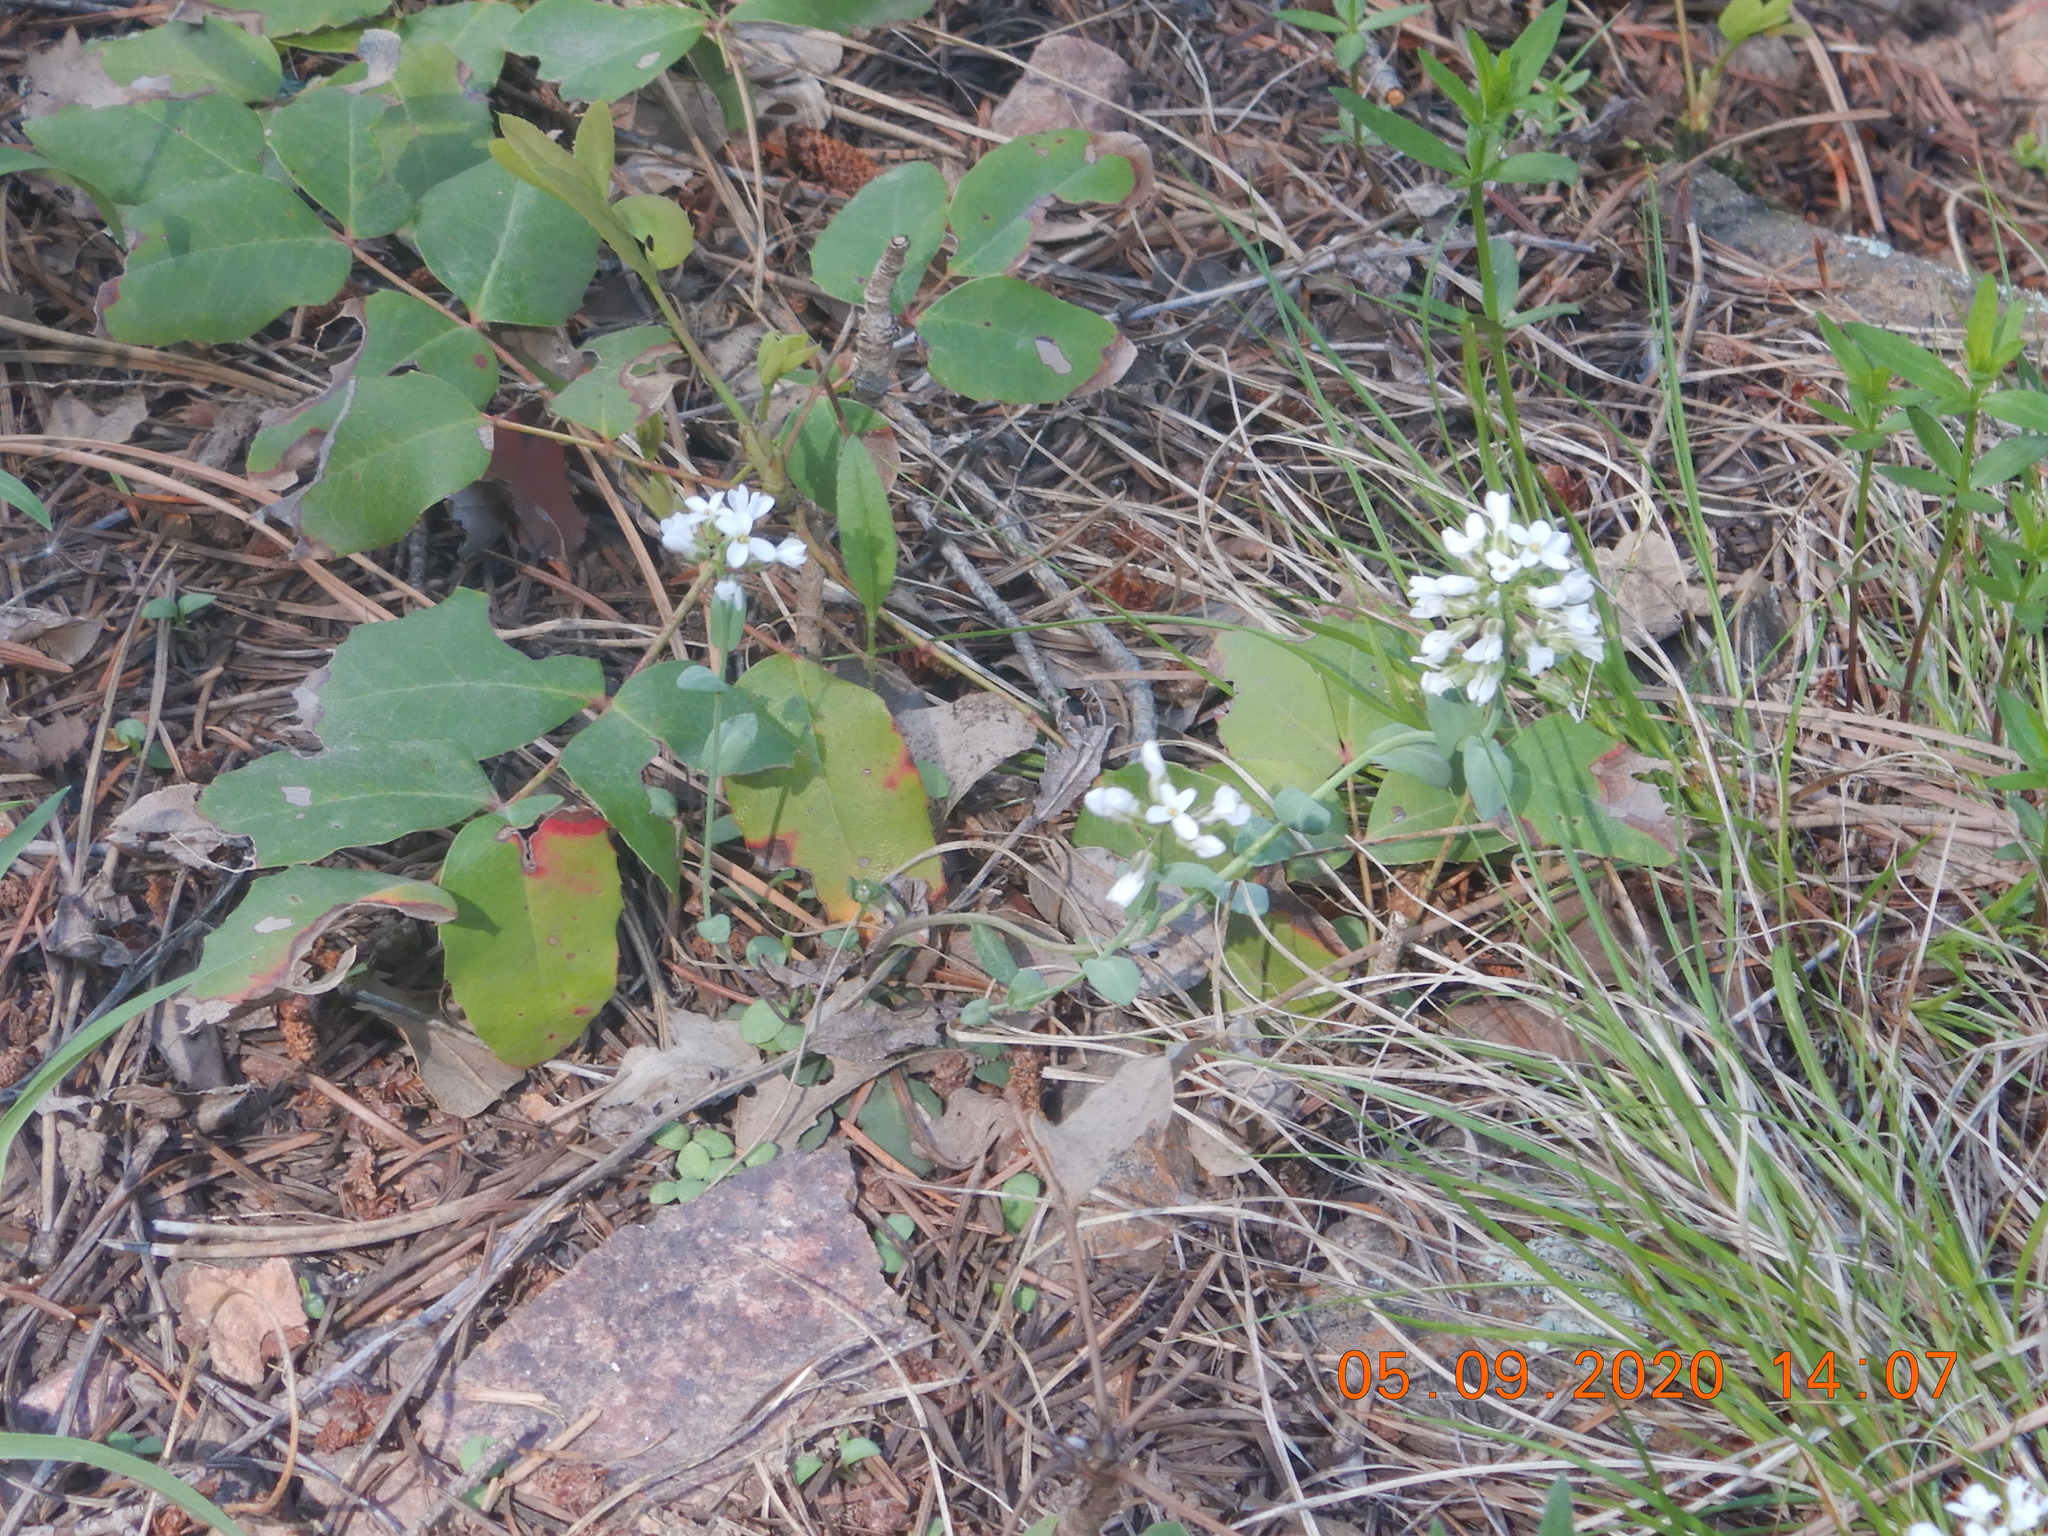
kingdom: Plantae
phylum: Tracheophyta
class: Magnoliopsida
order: Brassicales
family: Brassicaceae
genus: Noccaea
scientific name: Noccaea fendleri
